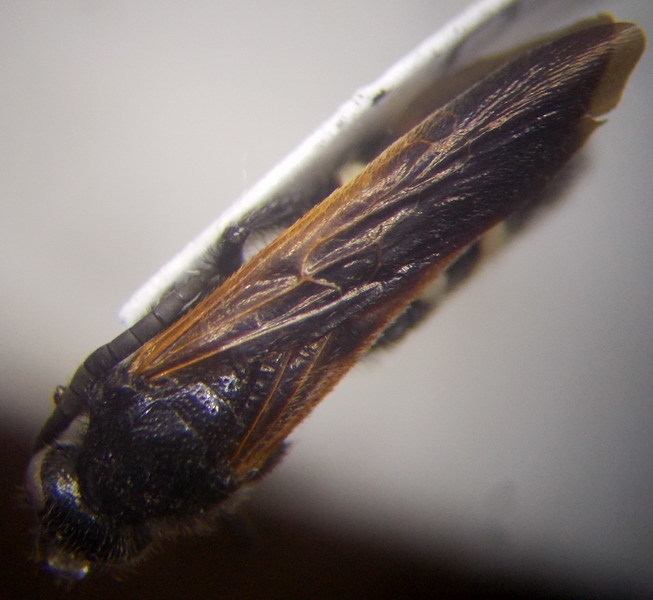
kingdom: Animalia
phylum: Arthropoda
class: Insecta
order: Hymenoptera
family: Vespidae
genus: Vespa
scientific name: Vespa sexmaculata
